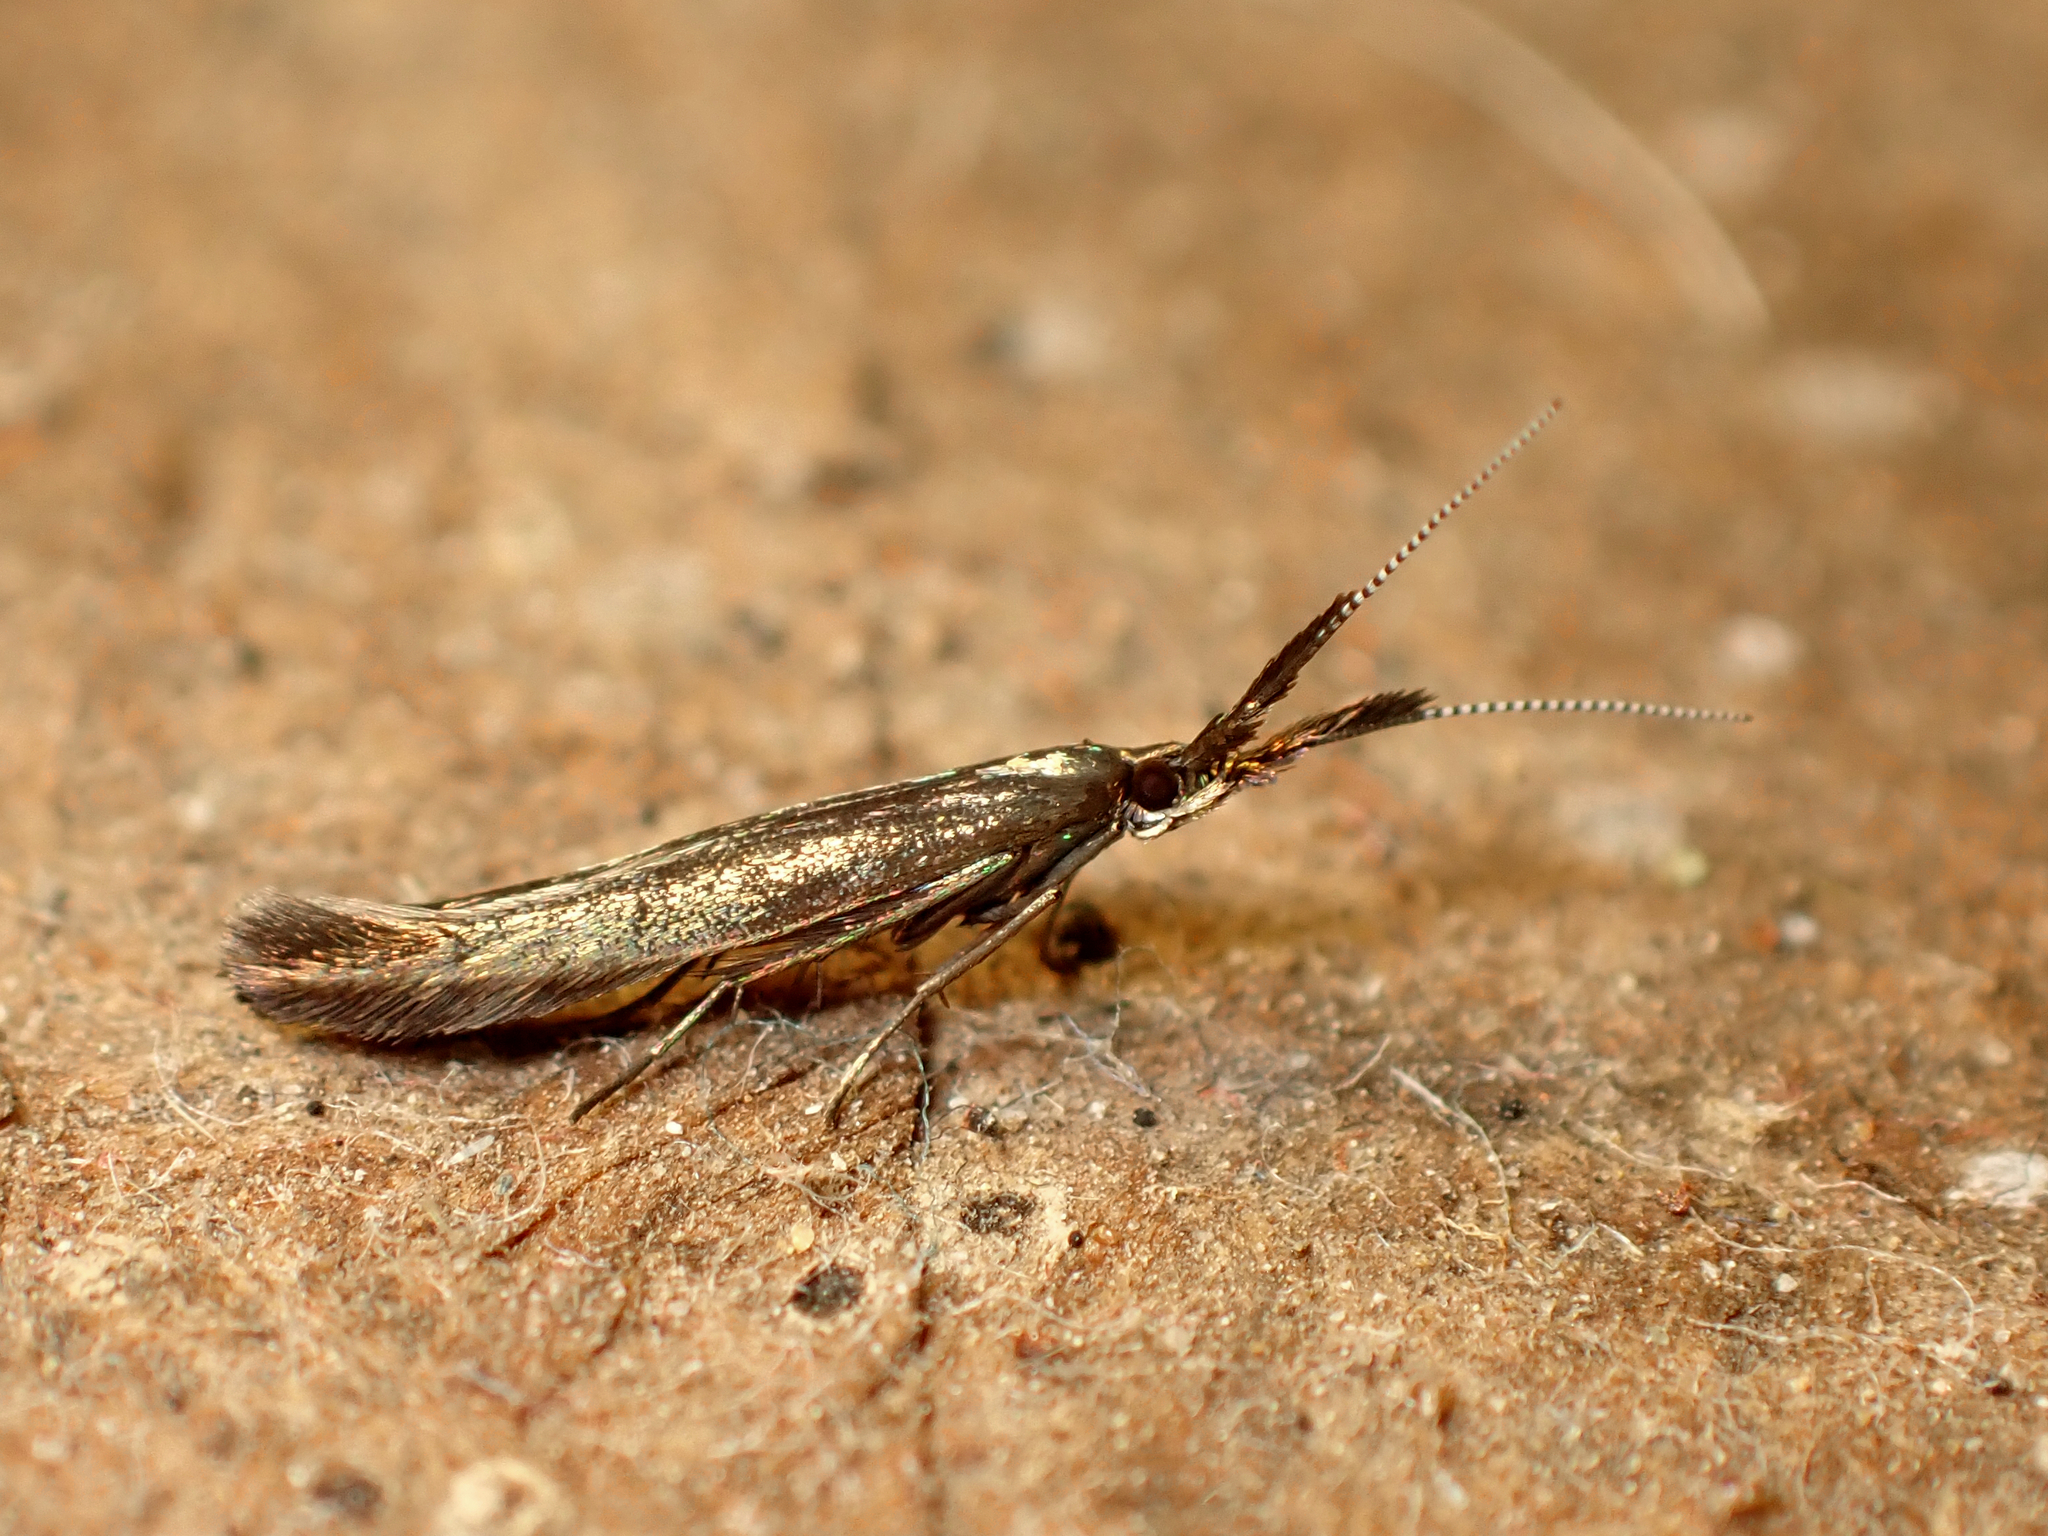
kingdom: Animalia
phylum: Arthropoda
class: Insecta
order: Lepidoptera
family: Coleophoridae
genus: Coleophora
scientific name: Coleophora mayrella
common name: Meadow case-bearer
